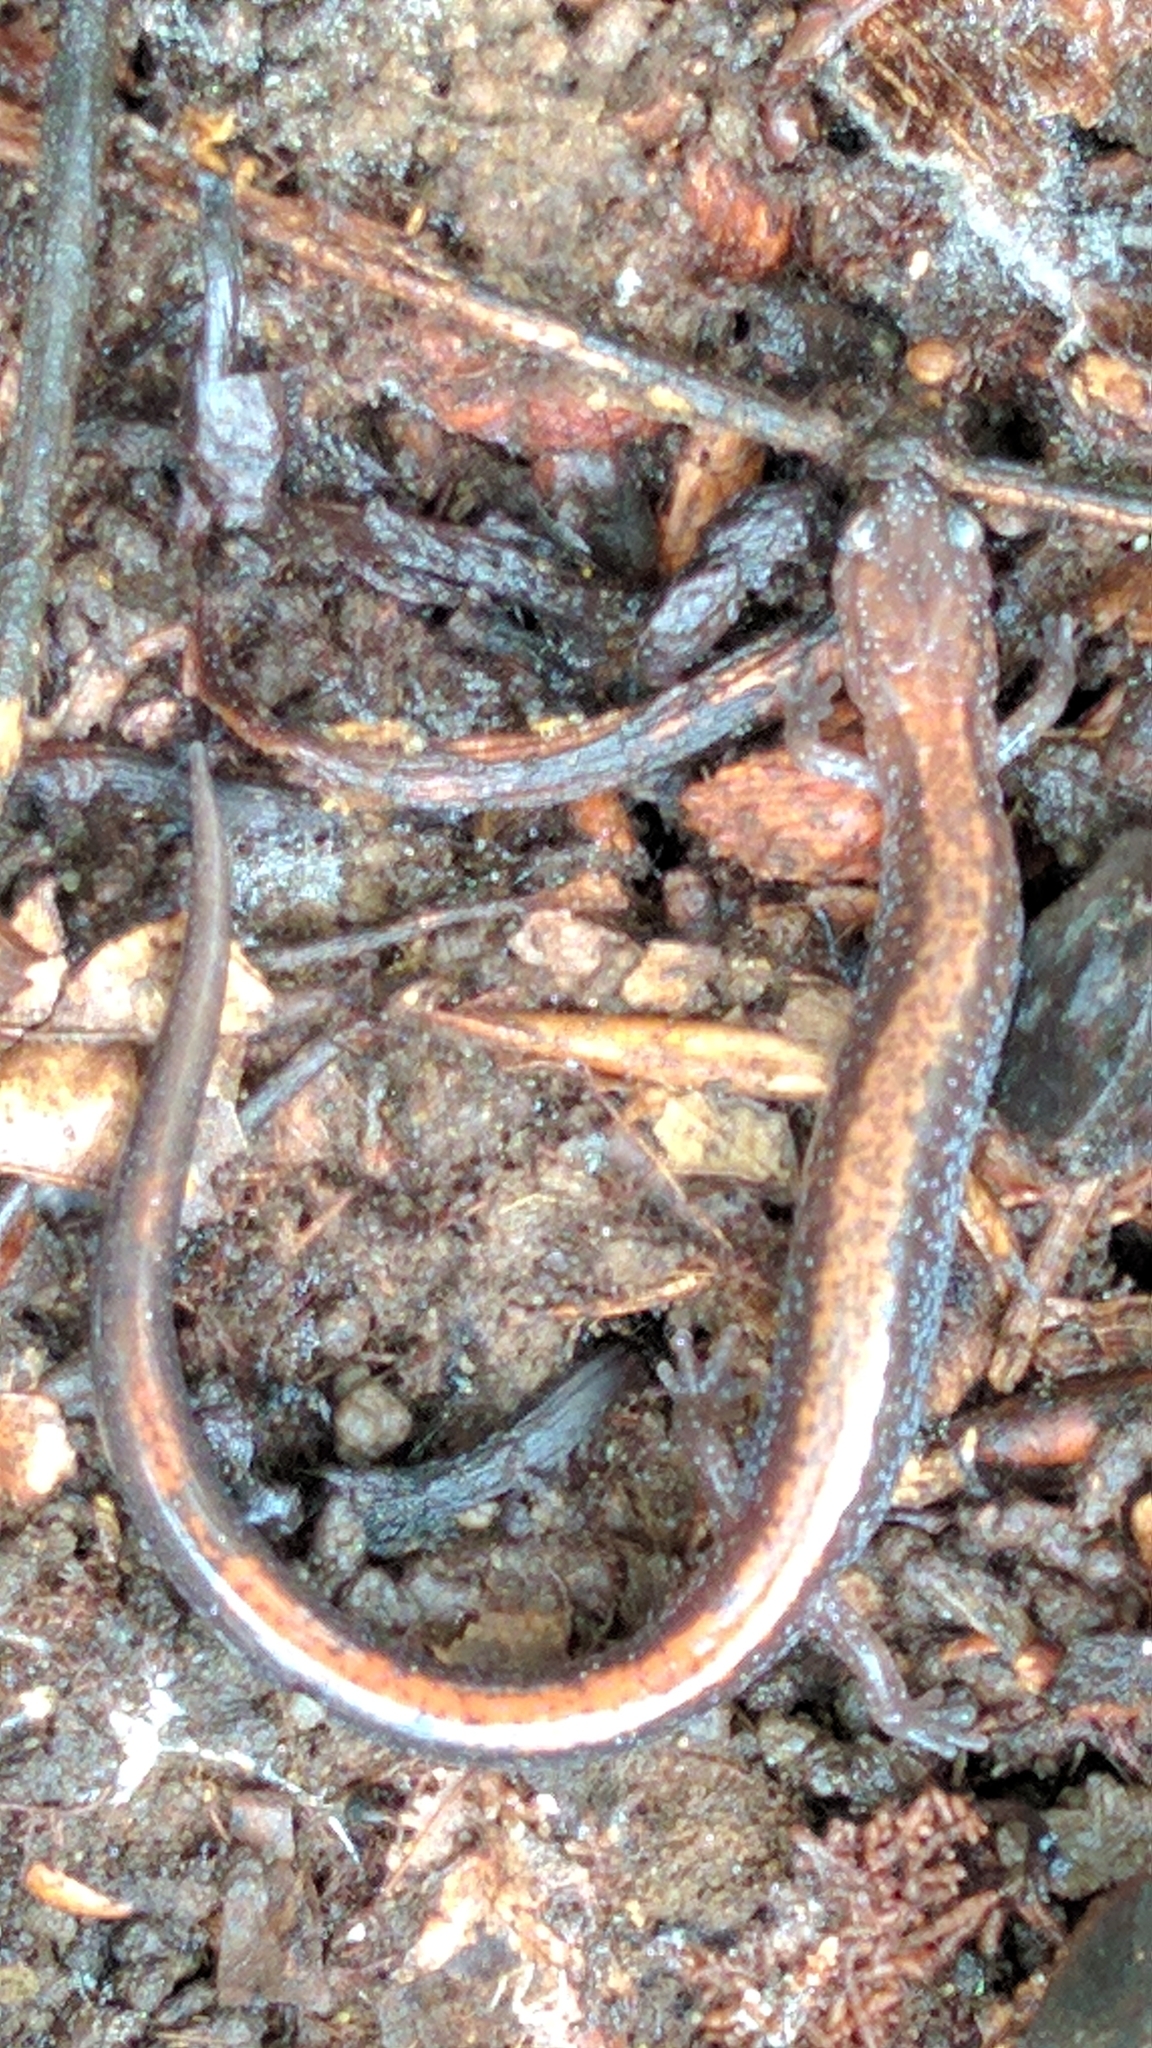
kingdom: Animalia
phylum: Chordata
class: Amphibia
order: Caudata
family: Plethodontidae
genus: Plethodon
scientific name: Plethodon cinereus
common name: Redback salamander
